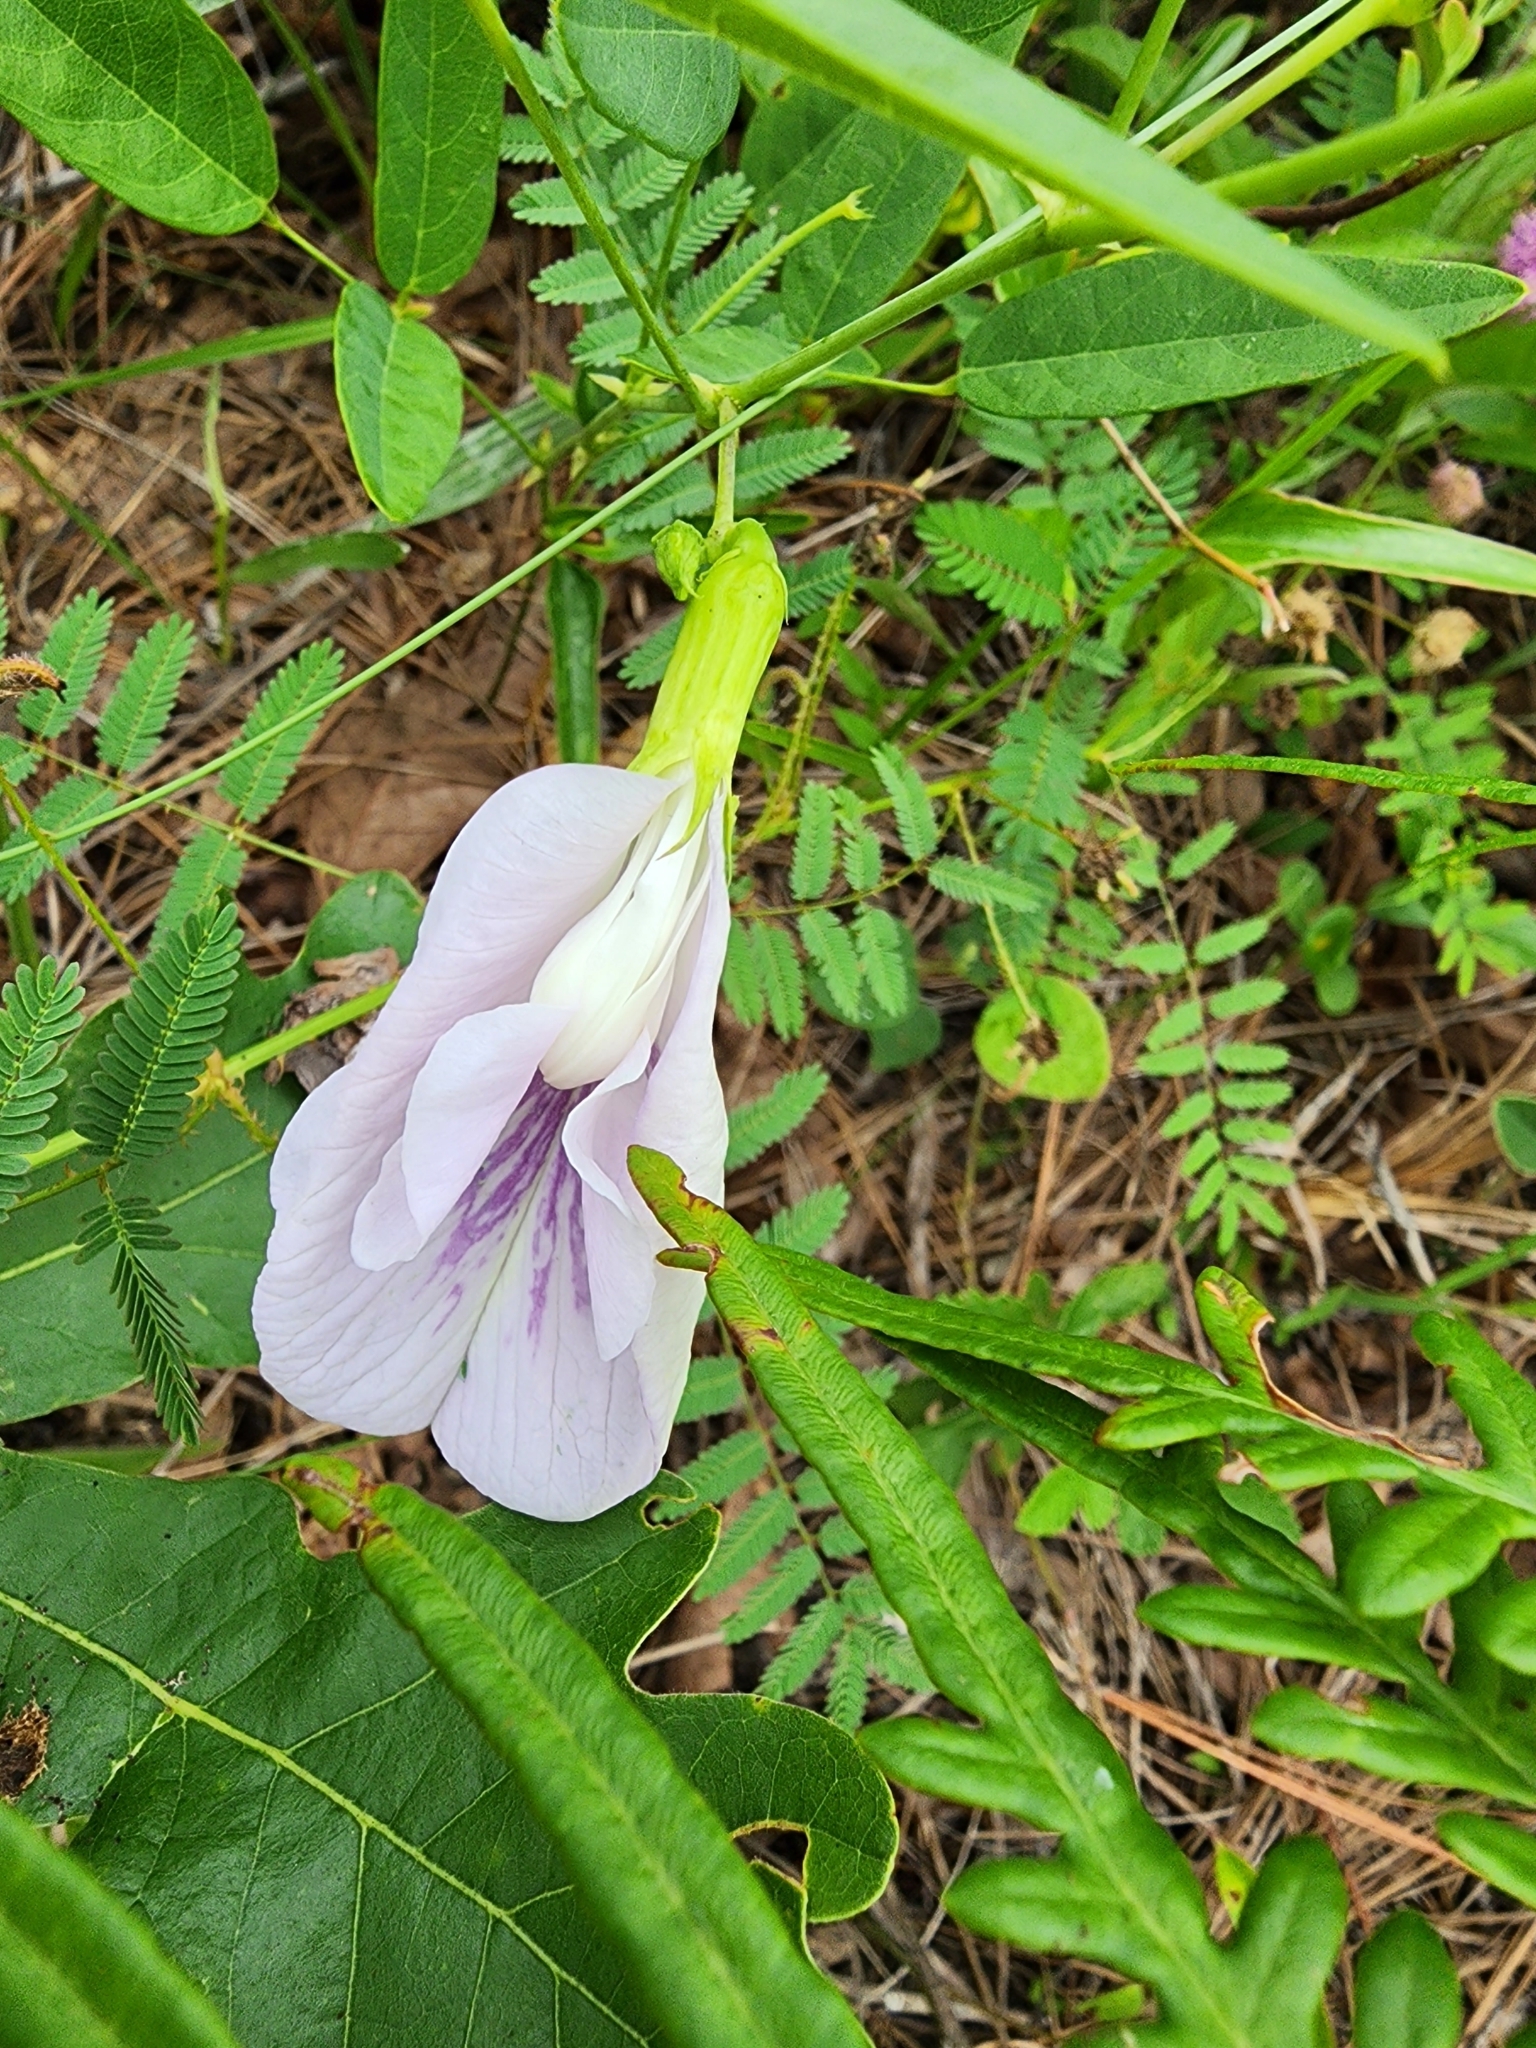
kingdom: Plantae
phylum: Tracheophyta
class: Magnoliopsida
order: Fabales
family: Fabaceae
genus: Clitoria
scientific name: Clitoria mariana
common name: Butterfly-pea
